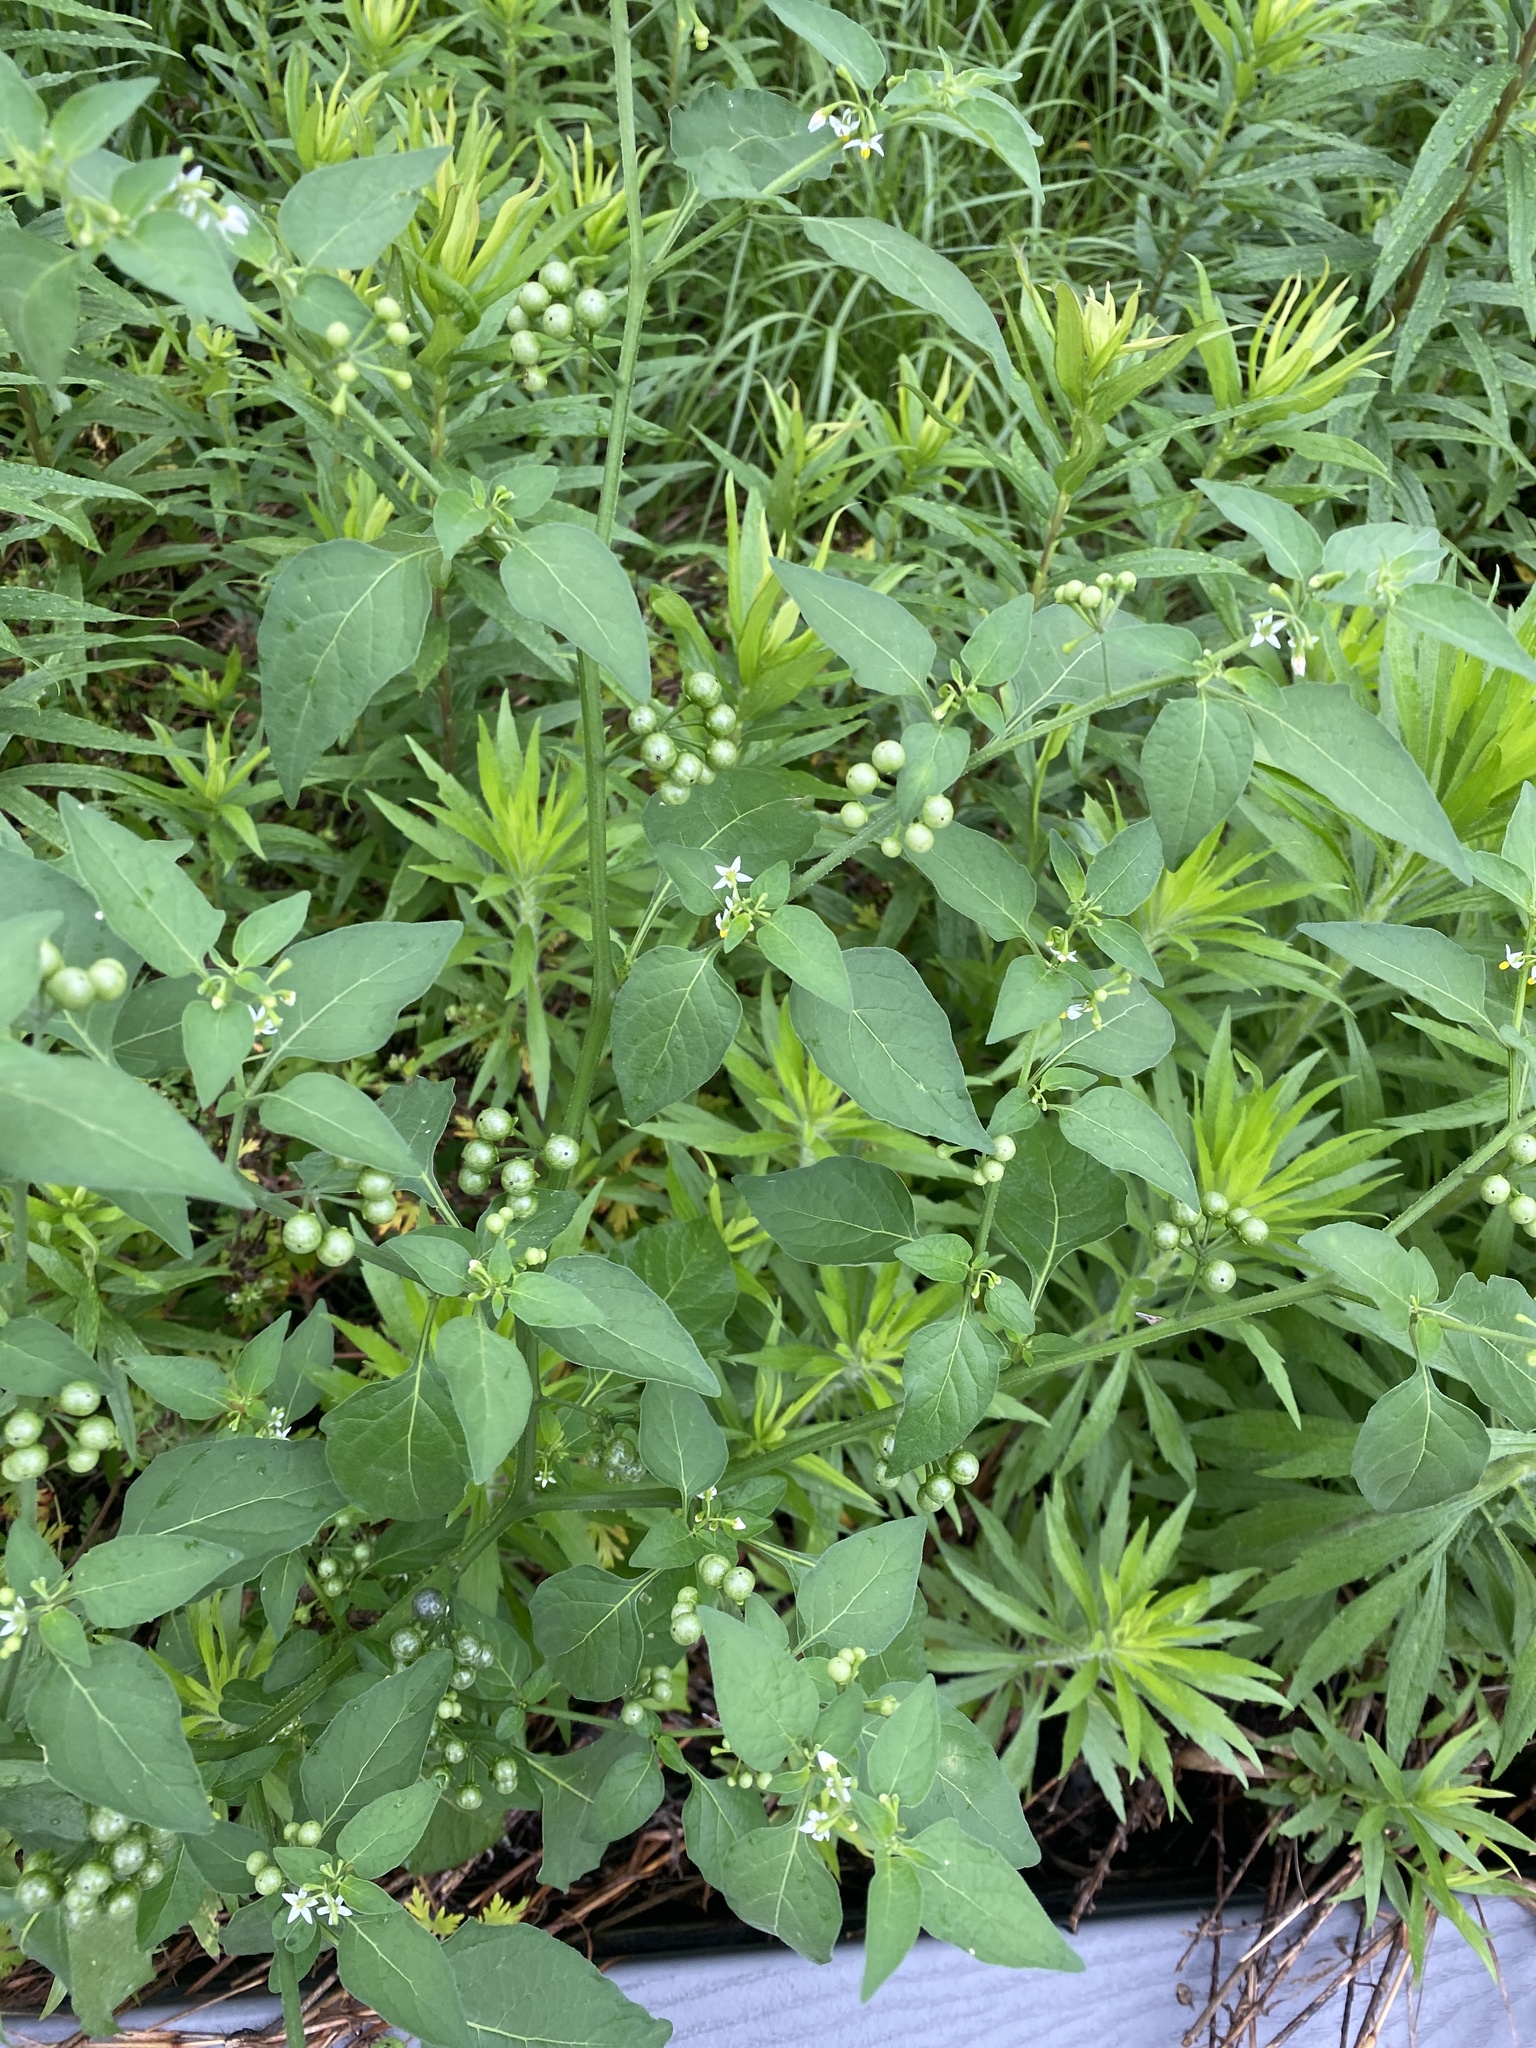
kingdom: Plantae
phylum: Tracheophyta
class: Magnoliopsida
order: Solanales
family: Solanaceae
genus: Solanum
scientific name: Solanum americanum
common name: American black nightshade
